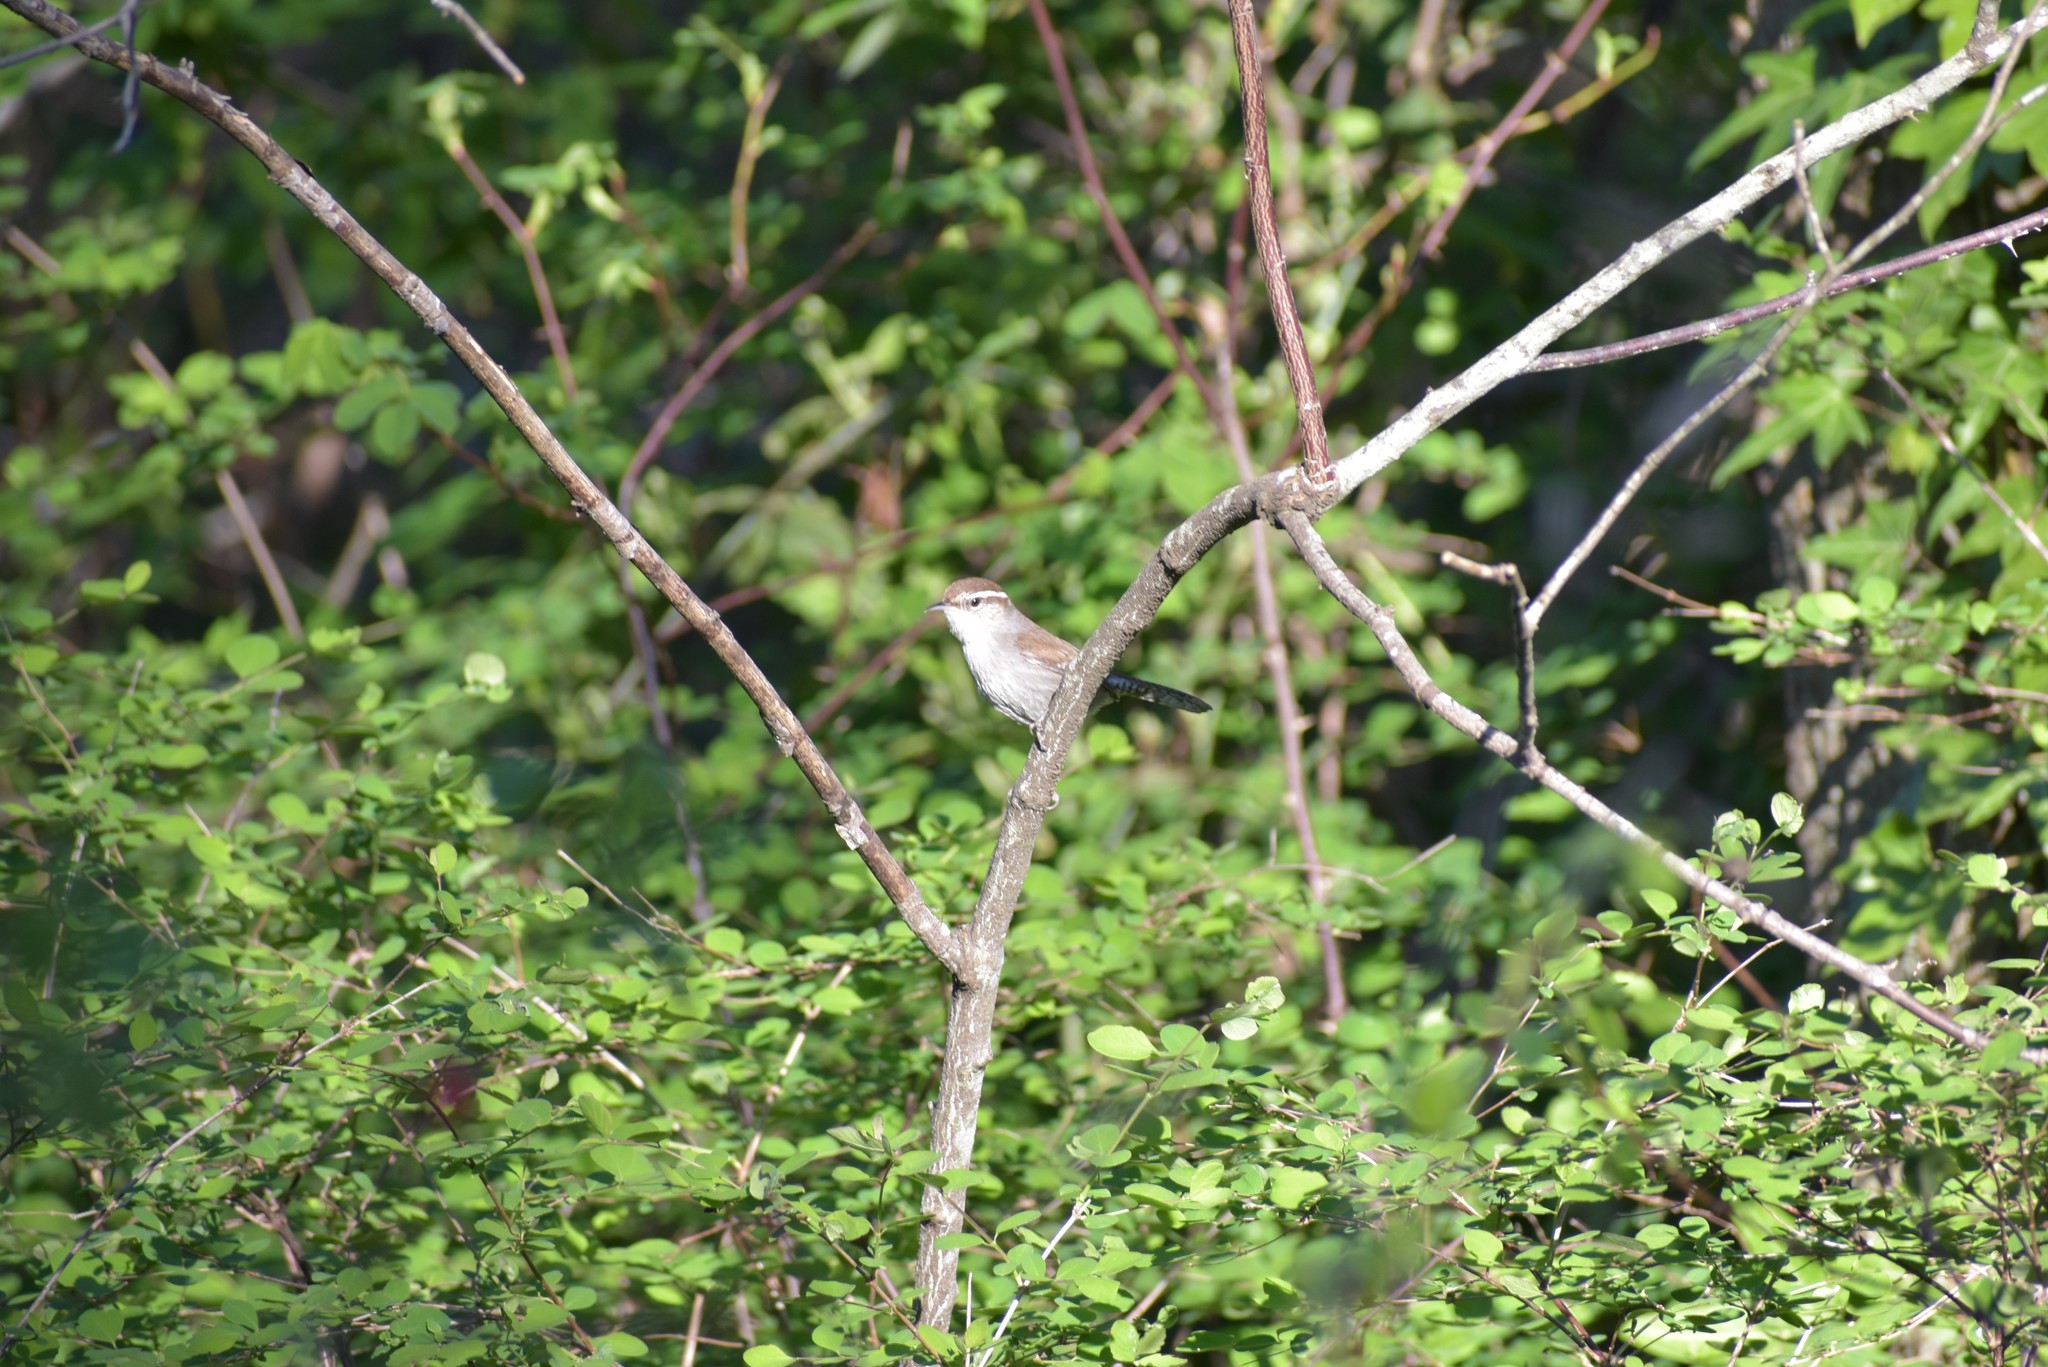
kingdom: Animalia
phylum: Chordata
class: Aves
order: Passeriformes
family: Troglodytidae
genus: Thryomanes
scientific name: Thryomanes bewickii
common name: Bewick's wren
